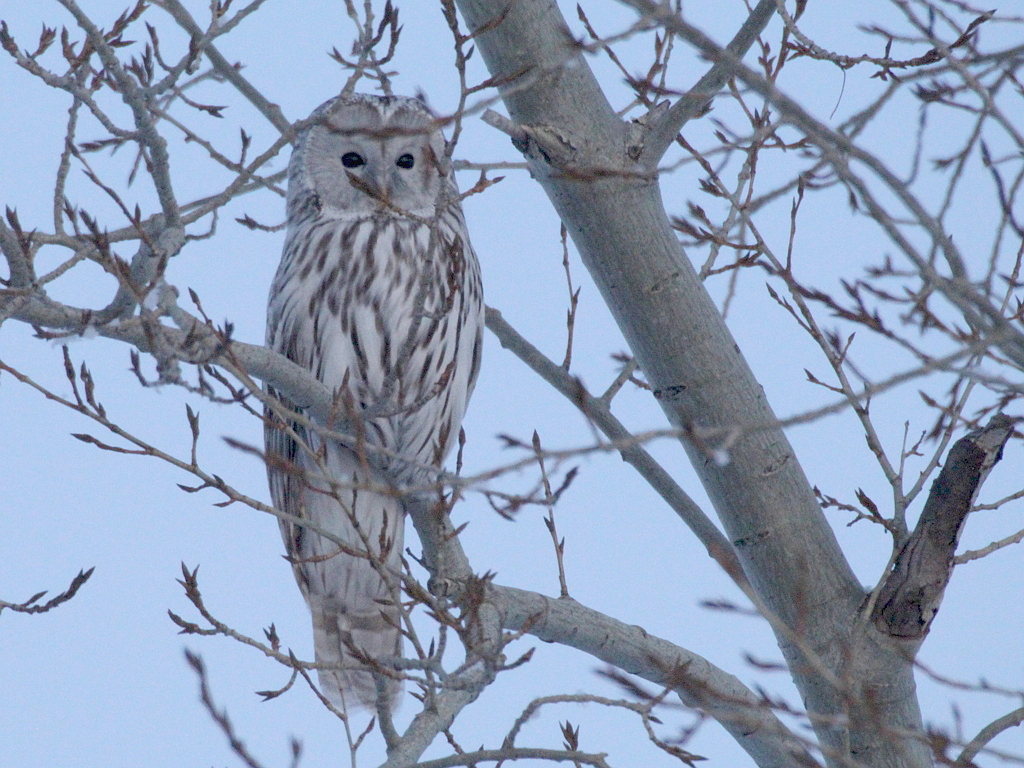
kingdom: Animalia
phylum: Chordata
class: Aves
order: Strigiformes
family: Strigidae
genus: Strix
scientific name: Strix uralensis
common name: Ural owl
